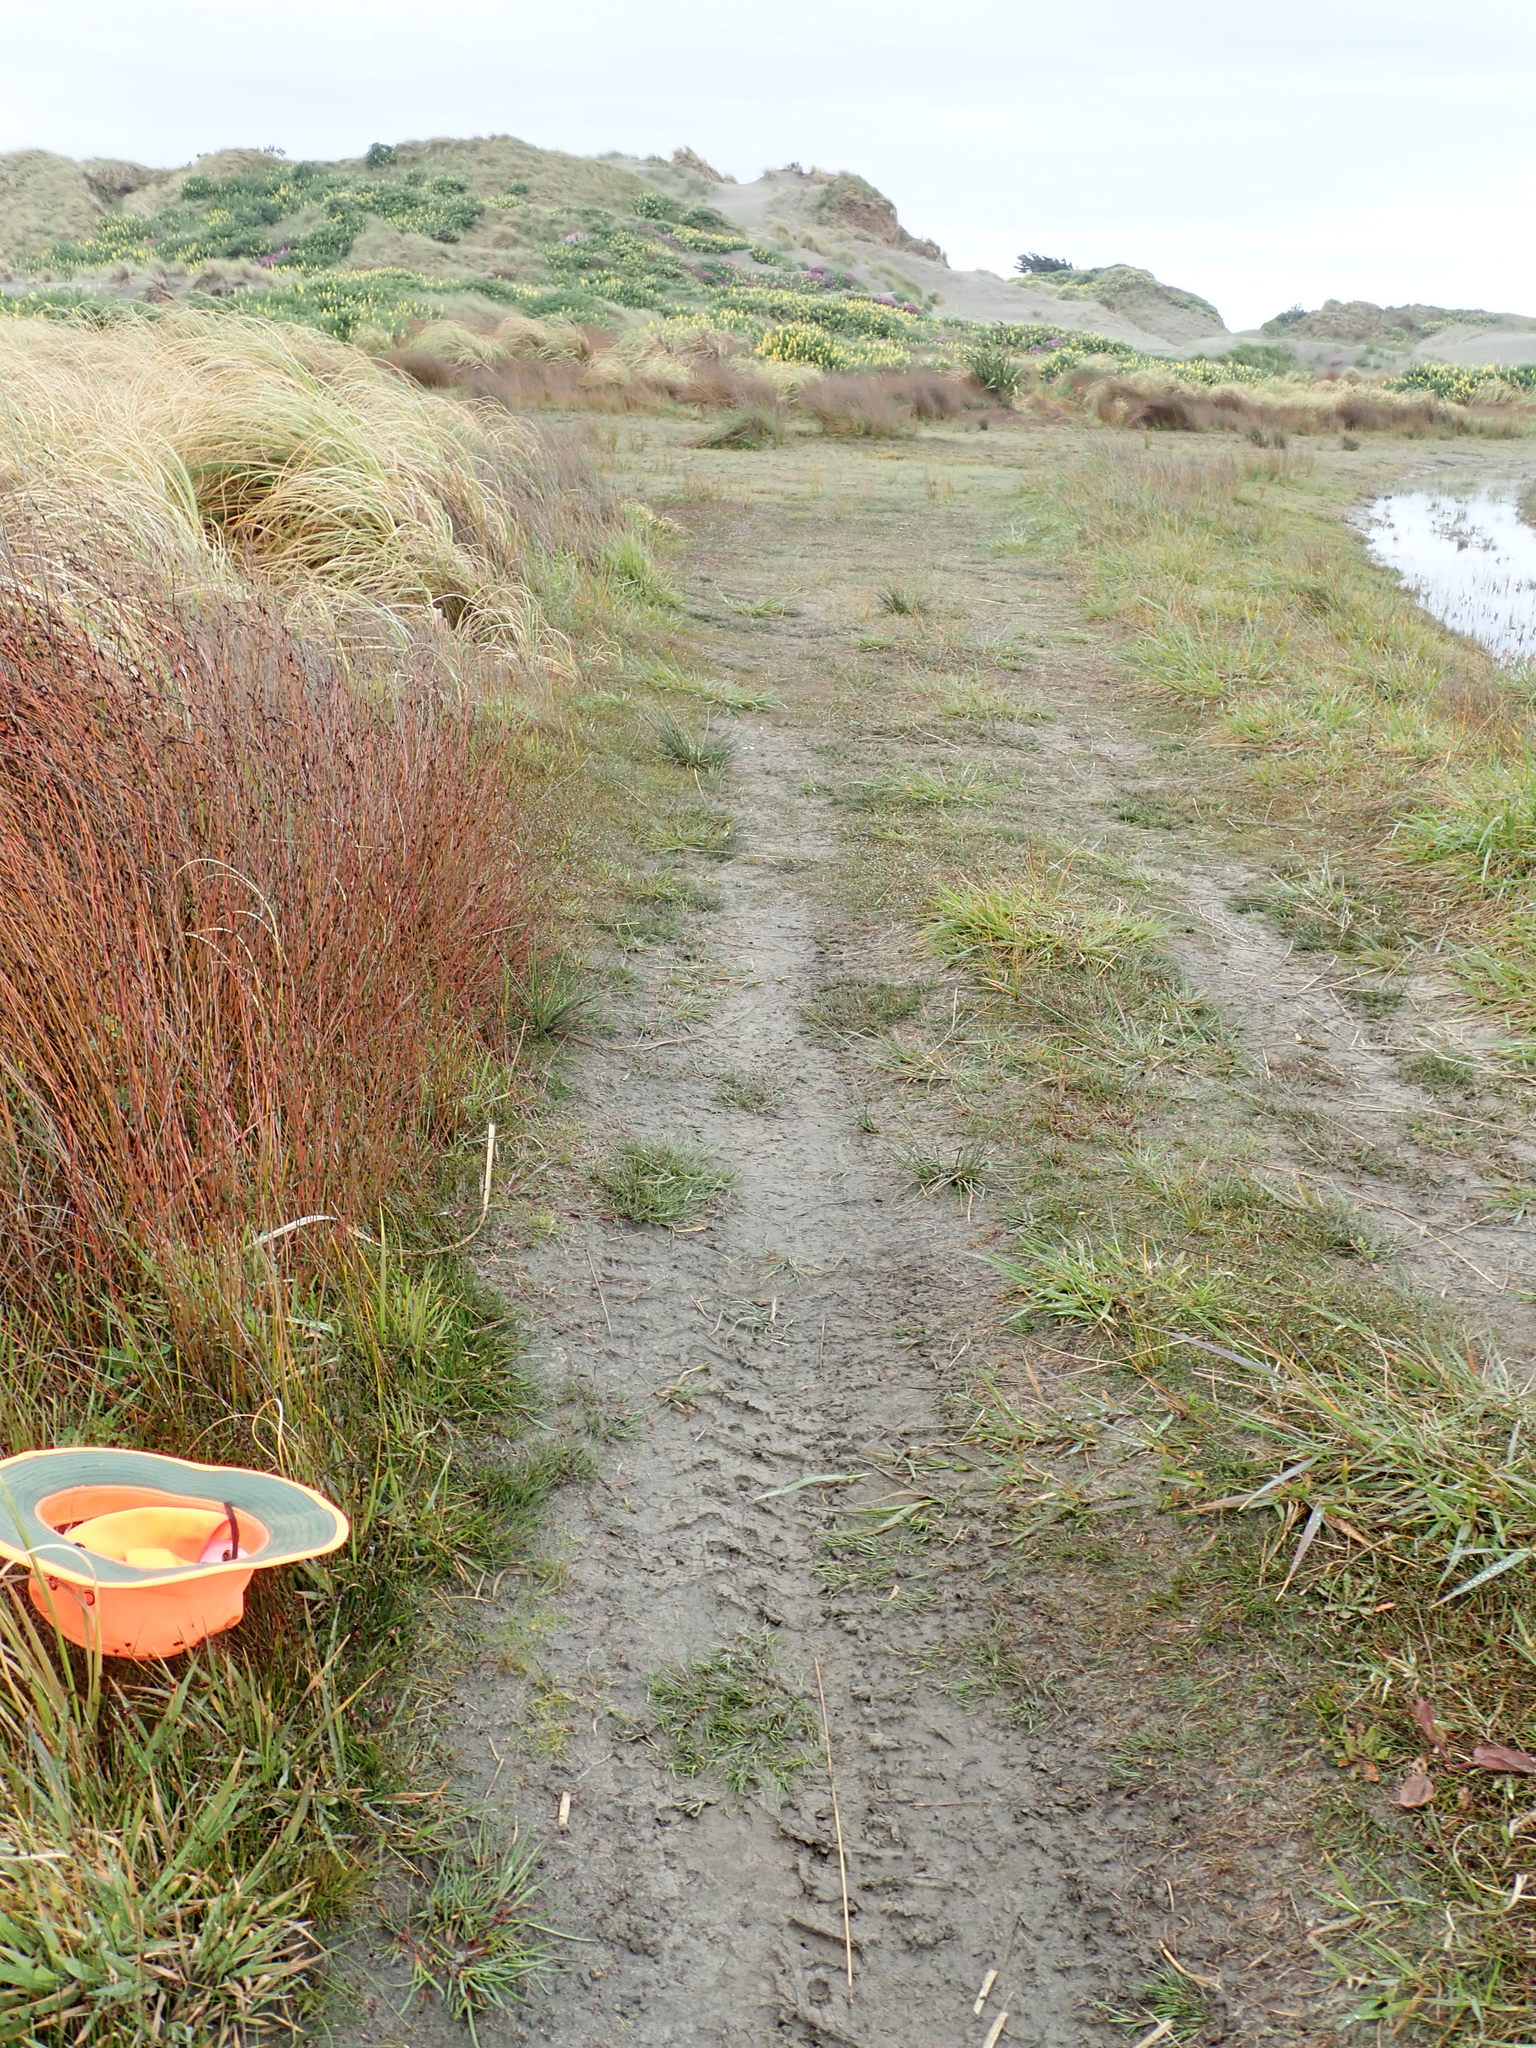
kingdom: Plantae
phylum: Tracheophyta
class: Liliopsida
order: Poales
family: Cyperaceae
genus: Isolepis
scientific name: Isolepis basilaris
